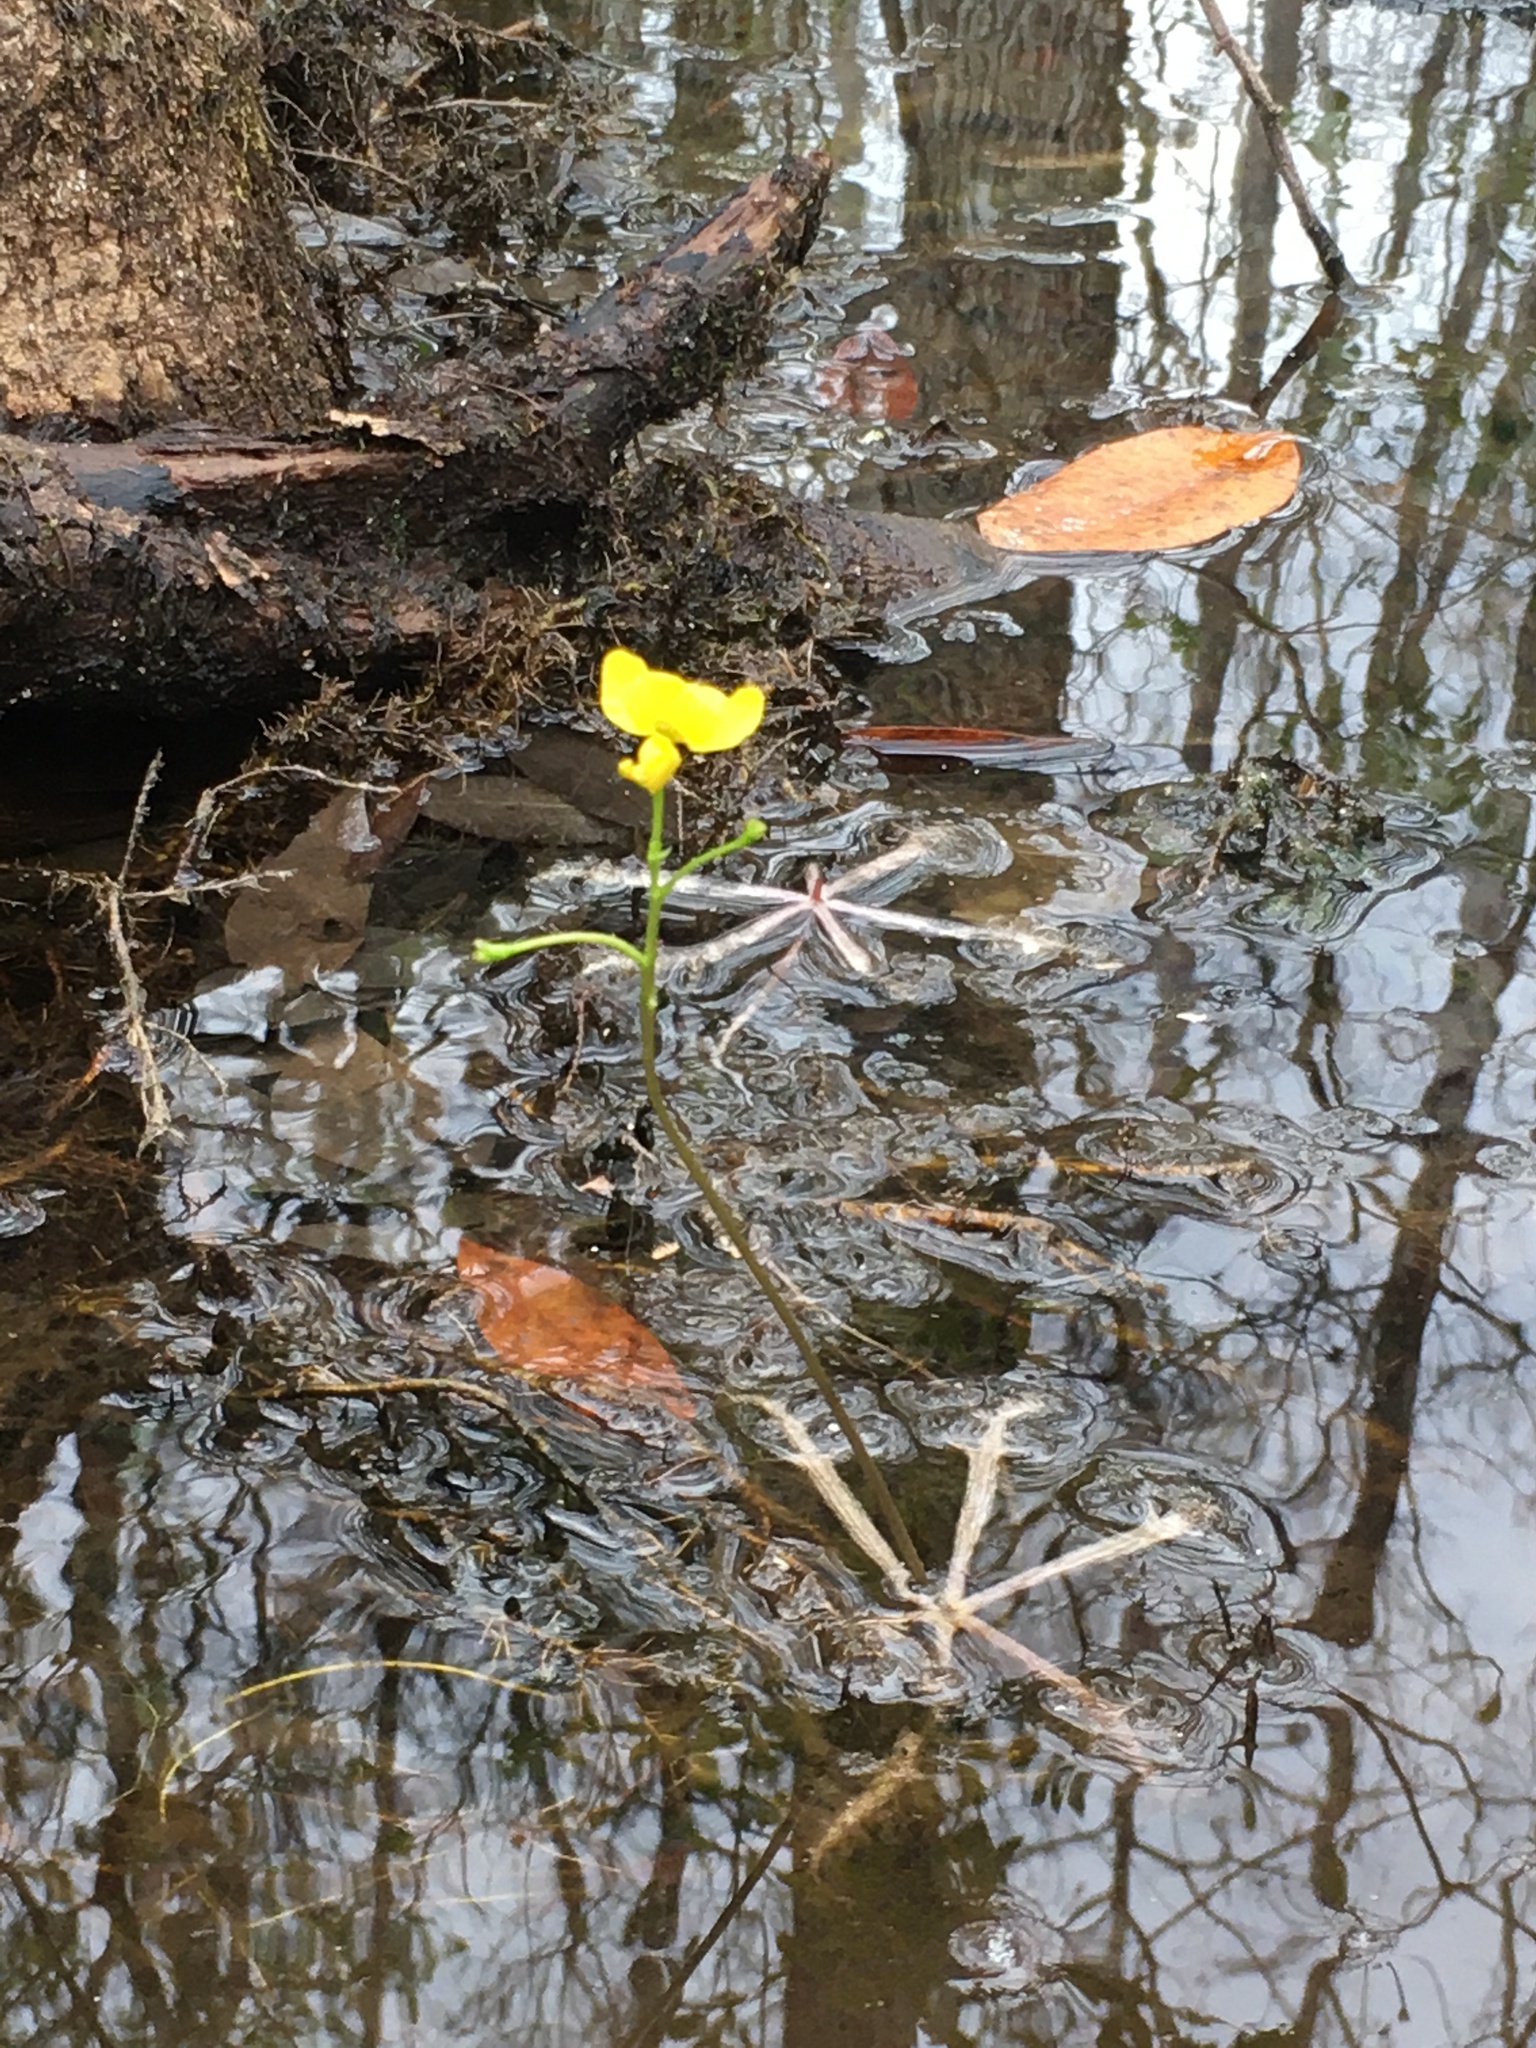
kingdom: Plantae
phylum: Tracheophyta
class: Magnoliopsida
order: Lamiales
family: Lentibulariaceae
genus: Utricularia
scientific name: Utricularia inflata
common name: Floating bladderwort
